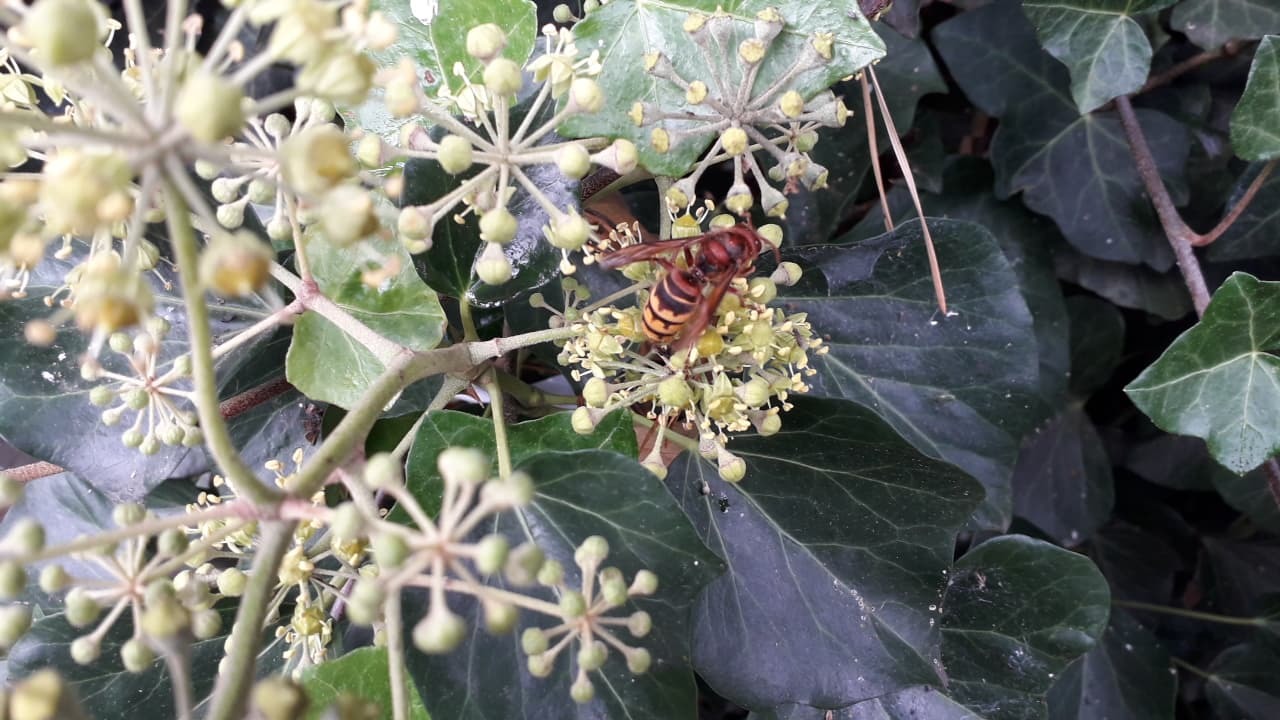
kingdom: Animalia
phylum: Arthropoda
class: Insecta
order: Hymenoptera
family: Vespidae
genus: Vespa
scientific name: Vespa crabro
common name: Hornet
